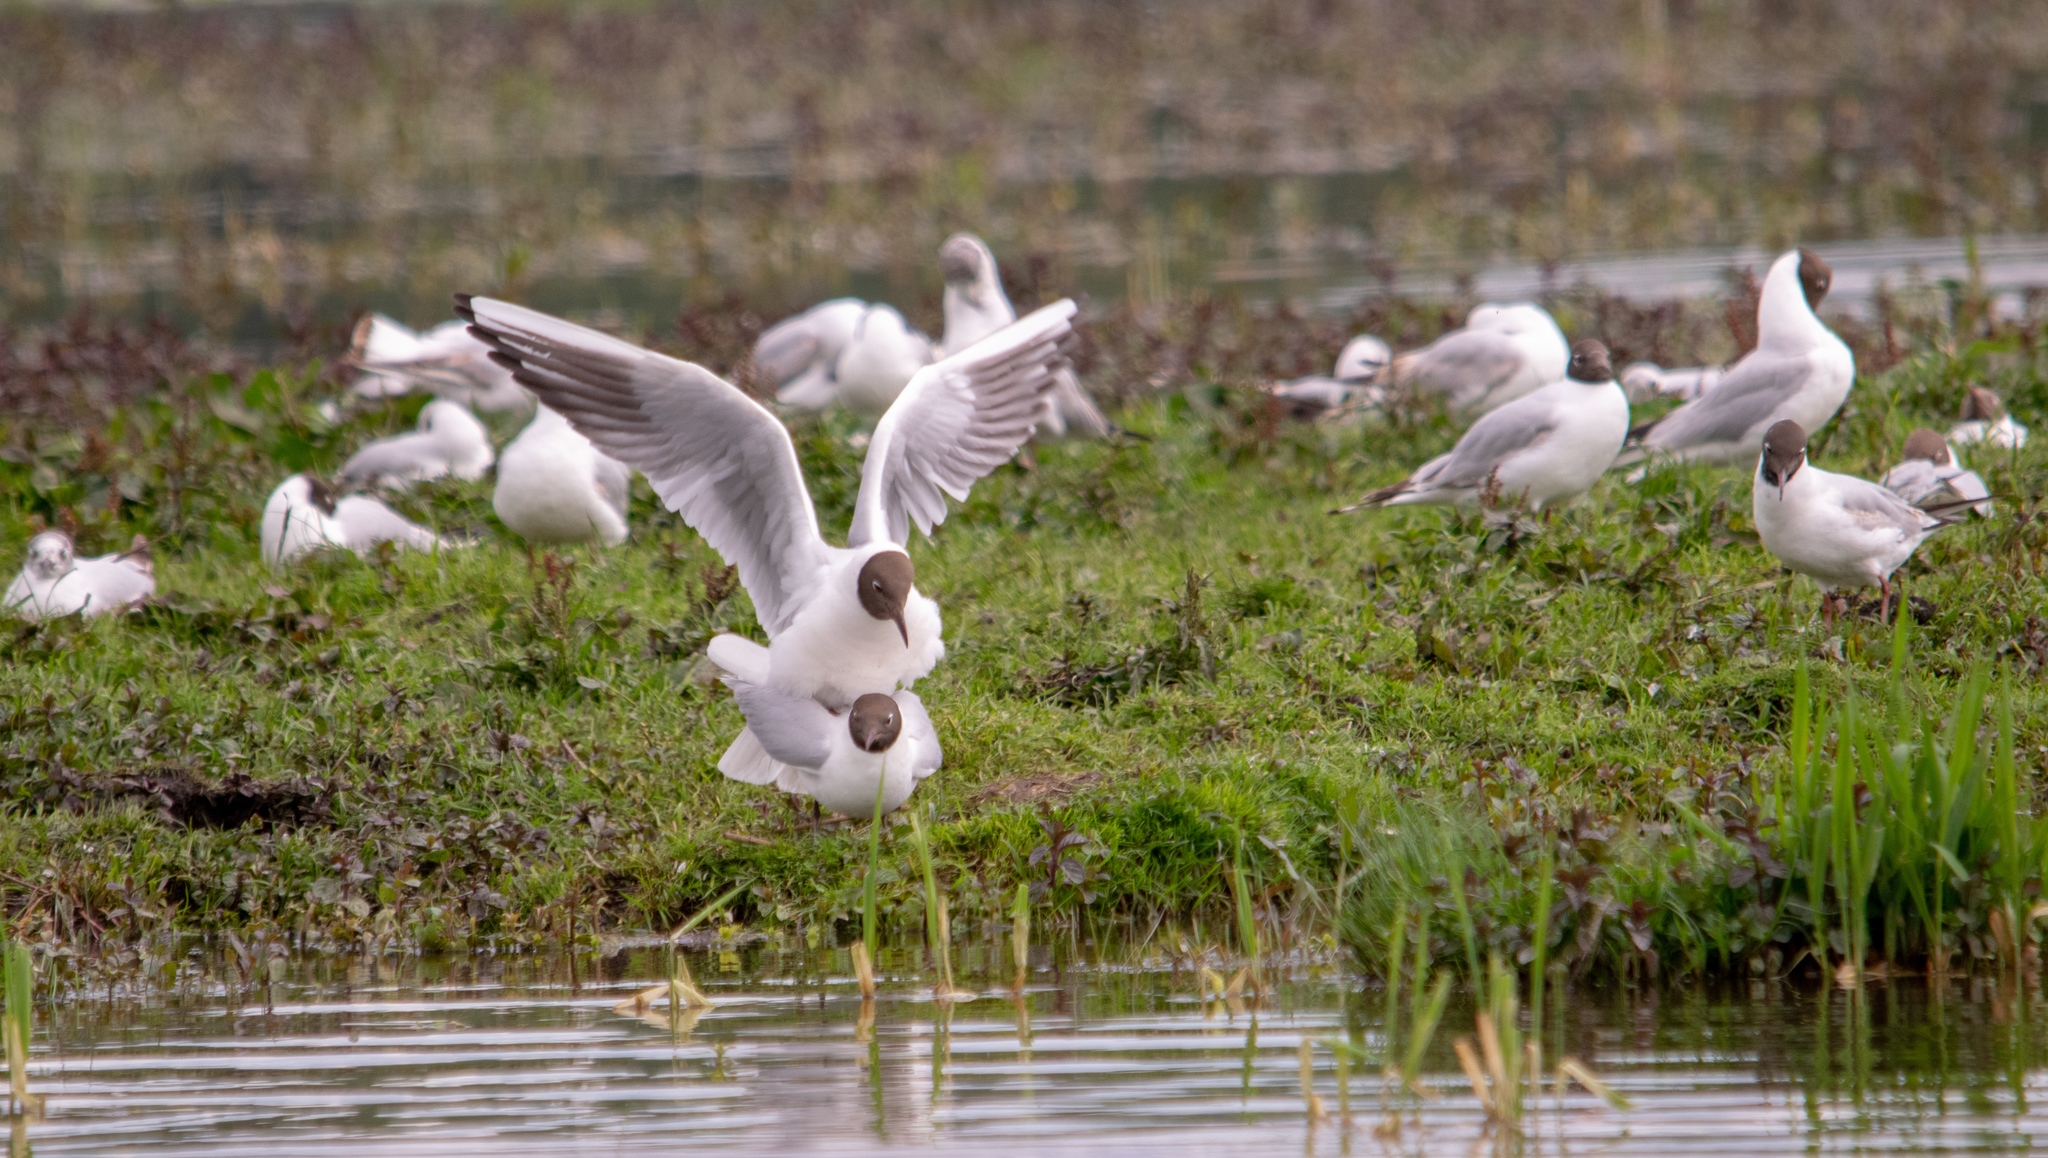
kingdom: Animalia
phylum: Chordata
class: Aves
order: Charadriiformes
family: Laridae
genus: Chroicocephalus
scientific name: Chroicocephalus ridibundus
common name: Black-headed gull
